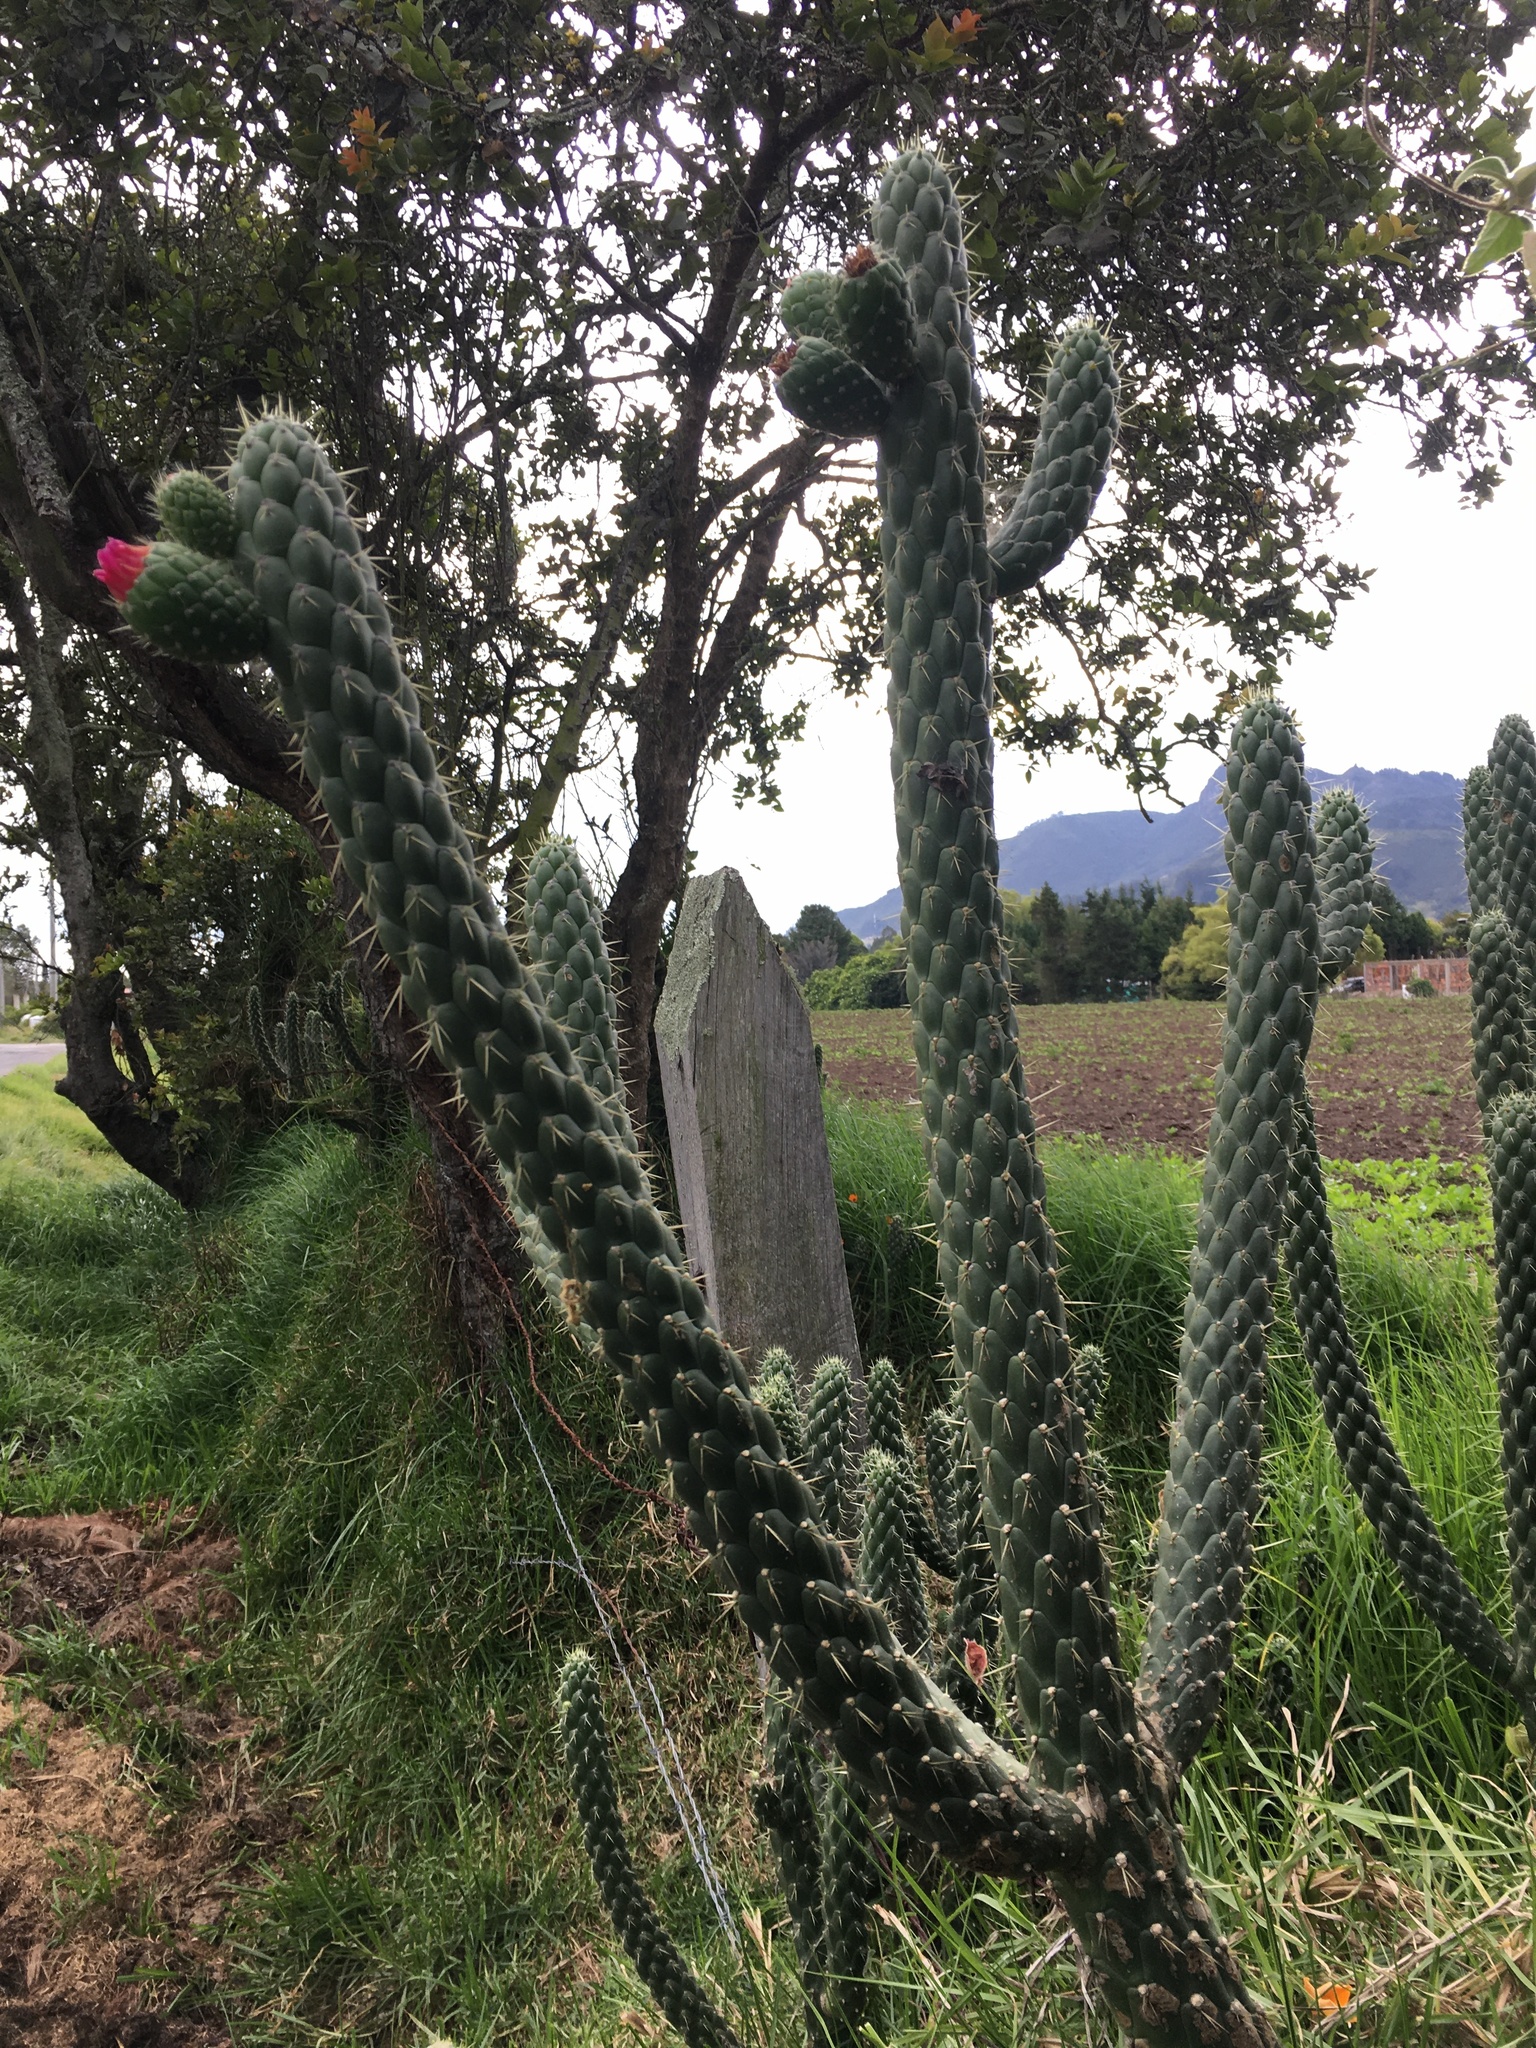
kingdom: Plantae
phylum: Tracheophyta
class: Magnoliopsida
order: Caryophyllales
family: Cactaceae
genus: Austrocylindropuntia
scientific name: Austrocylindropuntia cylindrica
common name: Cane cactus
